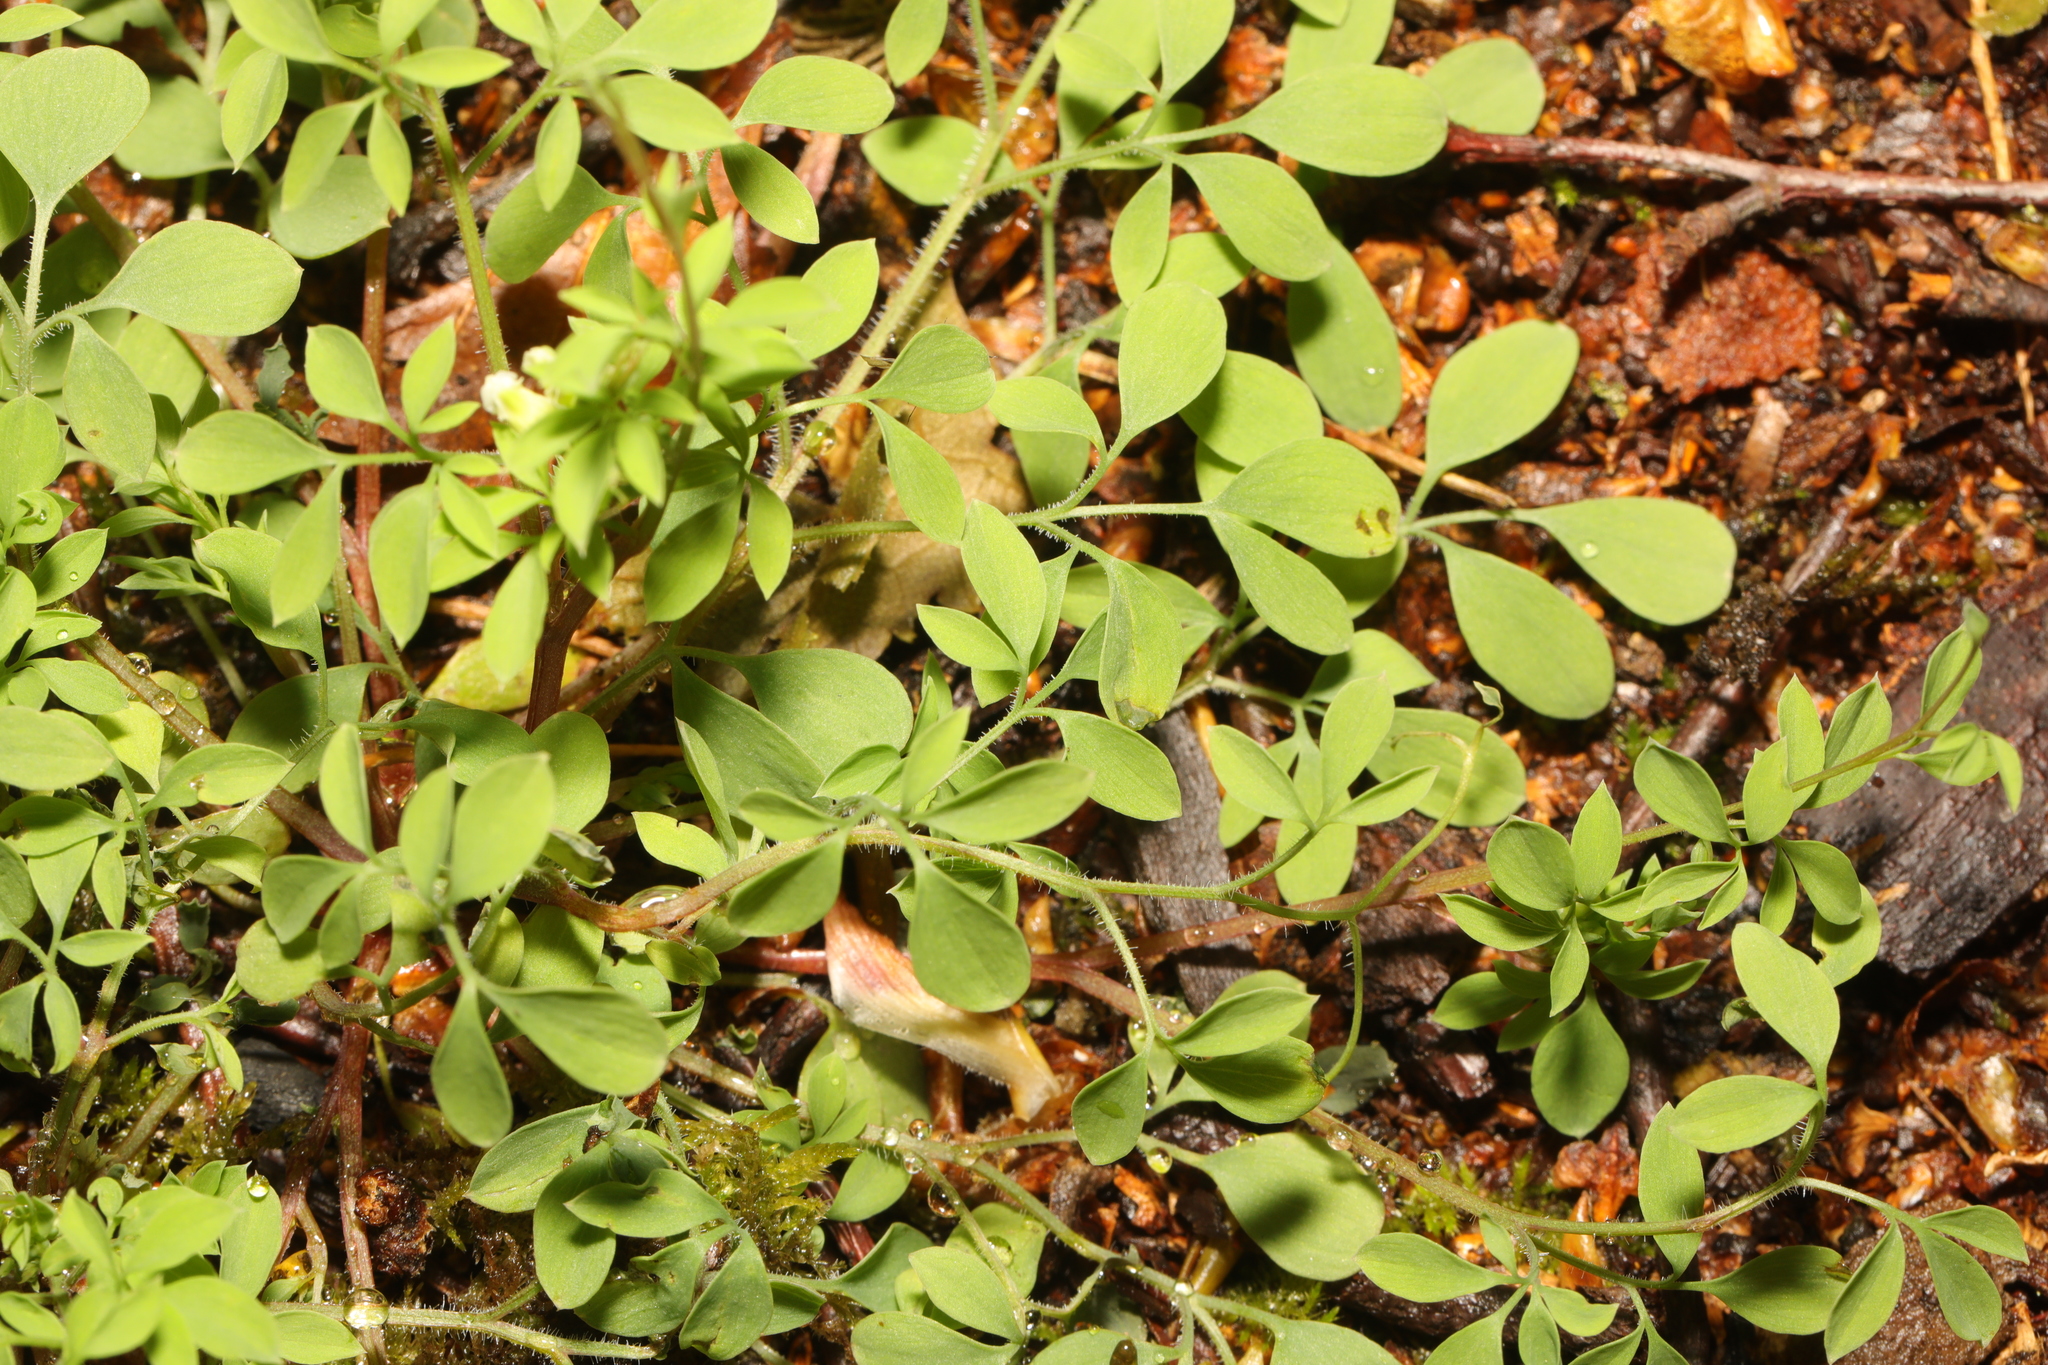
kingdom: Plantae
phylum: Tracheophyta
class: Magnoliopsida
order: Ranunculales
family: Papaveraceae
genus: Ceratocapnos
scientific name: Ceratocapnos claviculata
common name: Climbing corydalis
